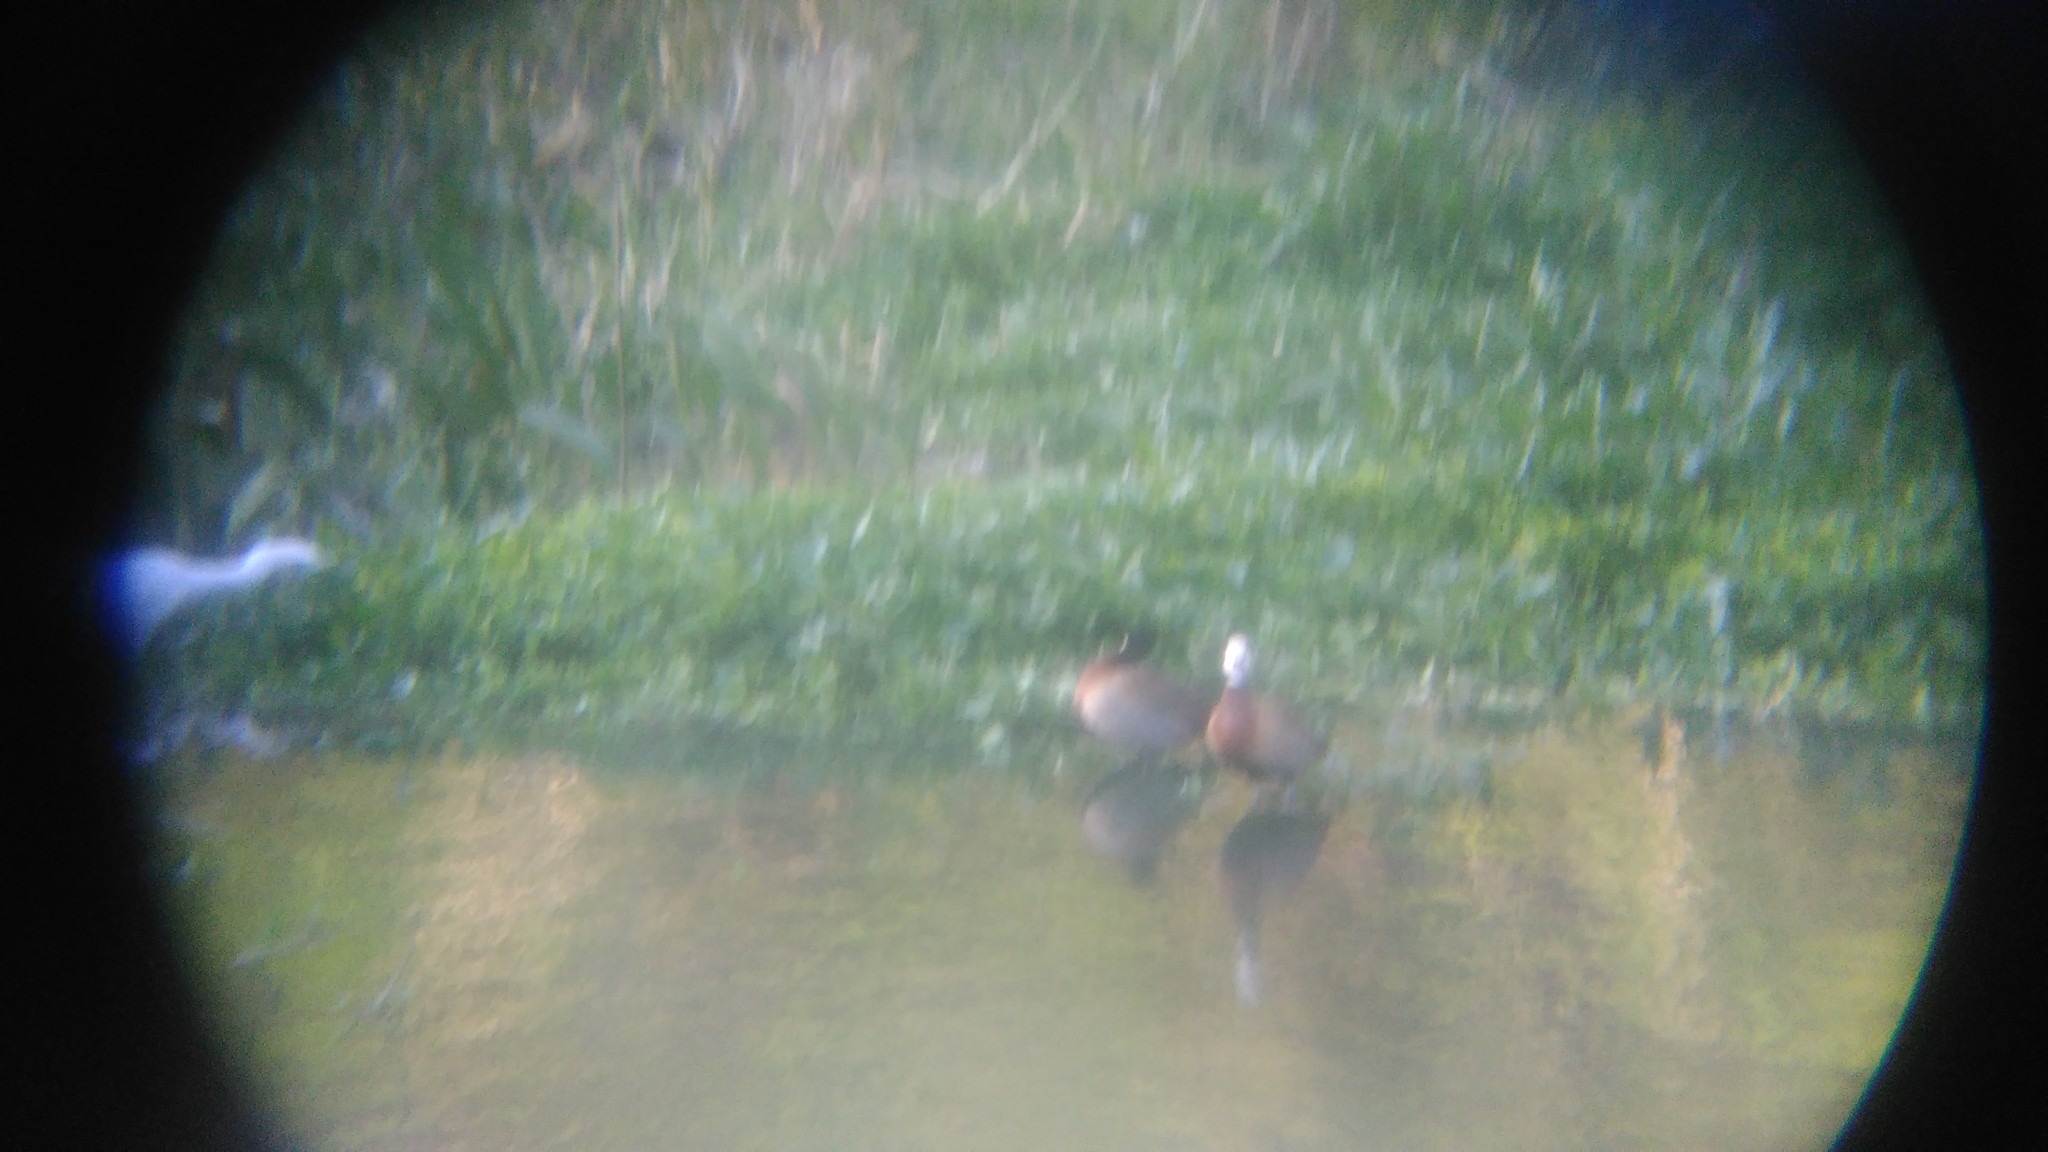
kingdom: Animalia
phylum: Chordata
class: Aves
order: Anseriformes
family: Anatidae
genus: Dendrocygna
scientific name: Dendrocygna viduata
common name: White-faced whistling duck
